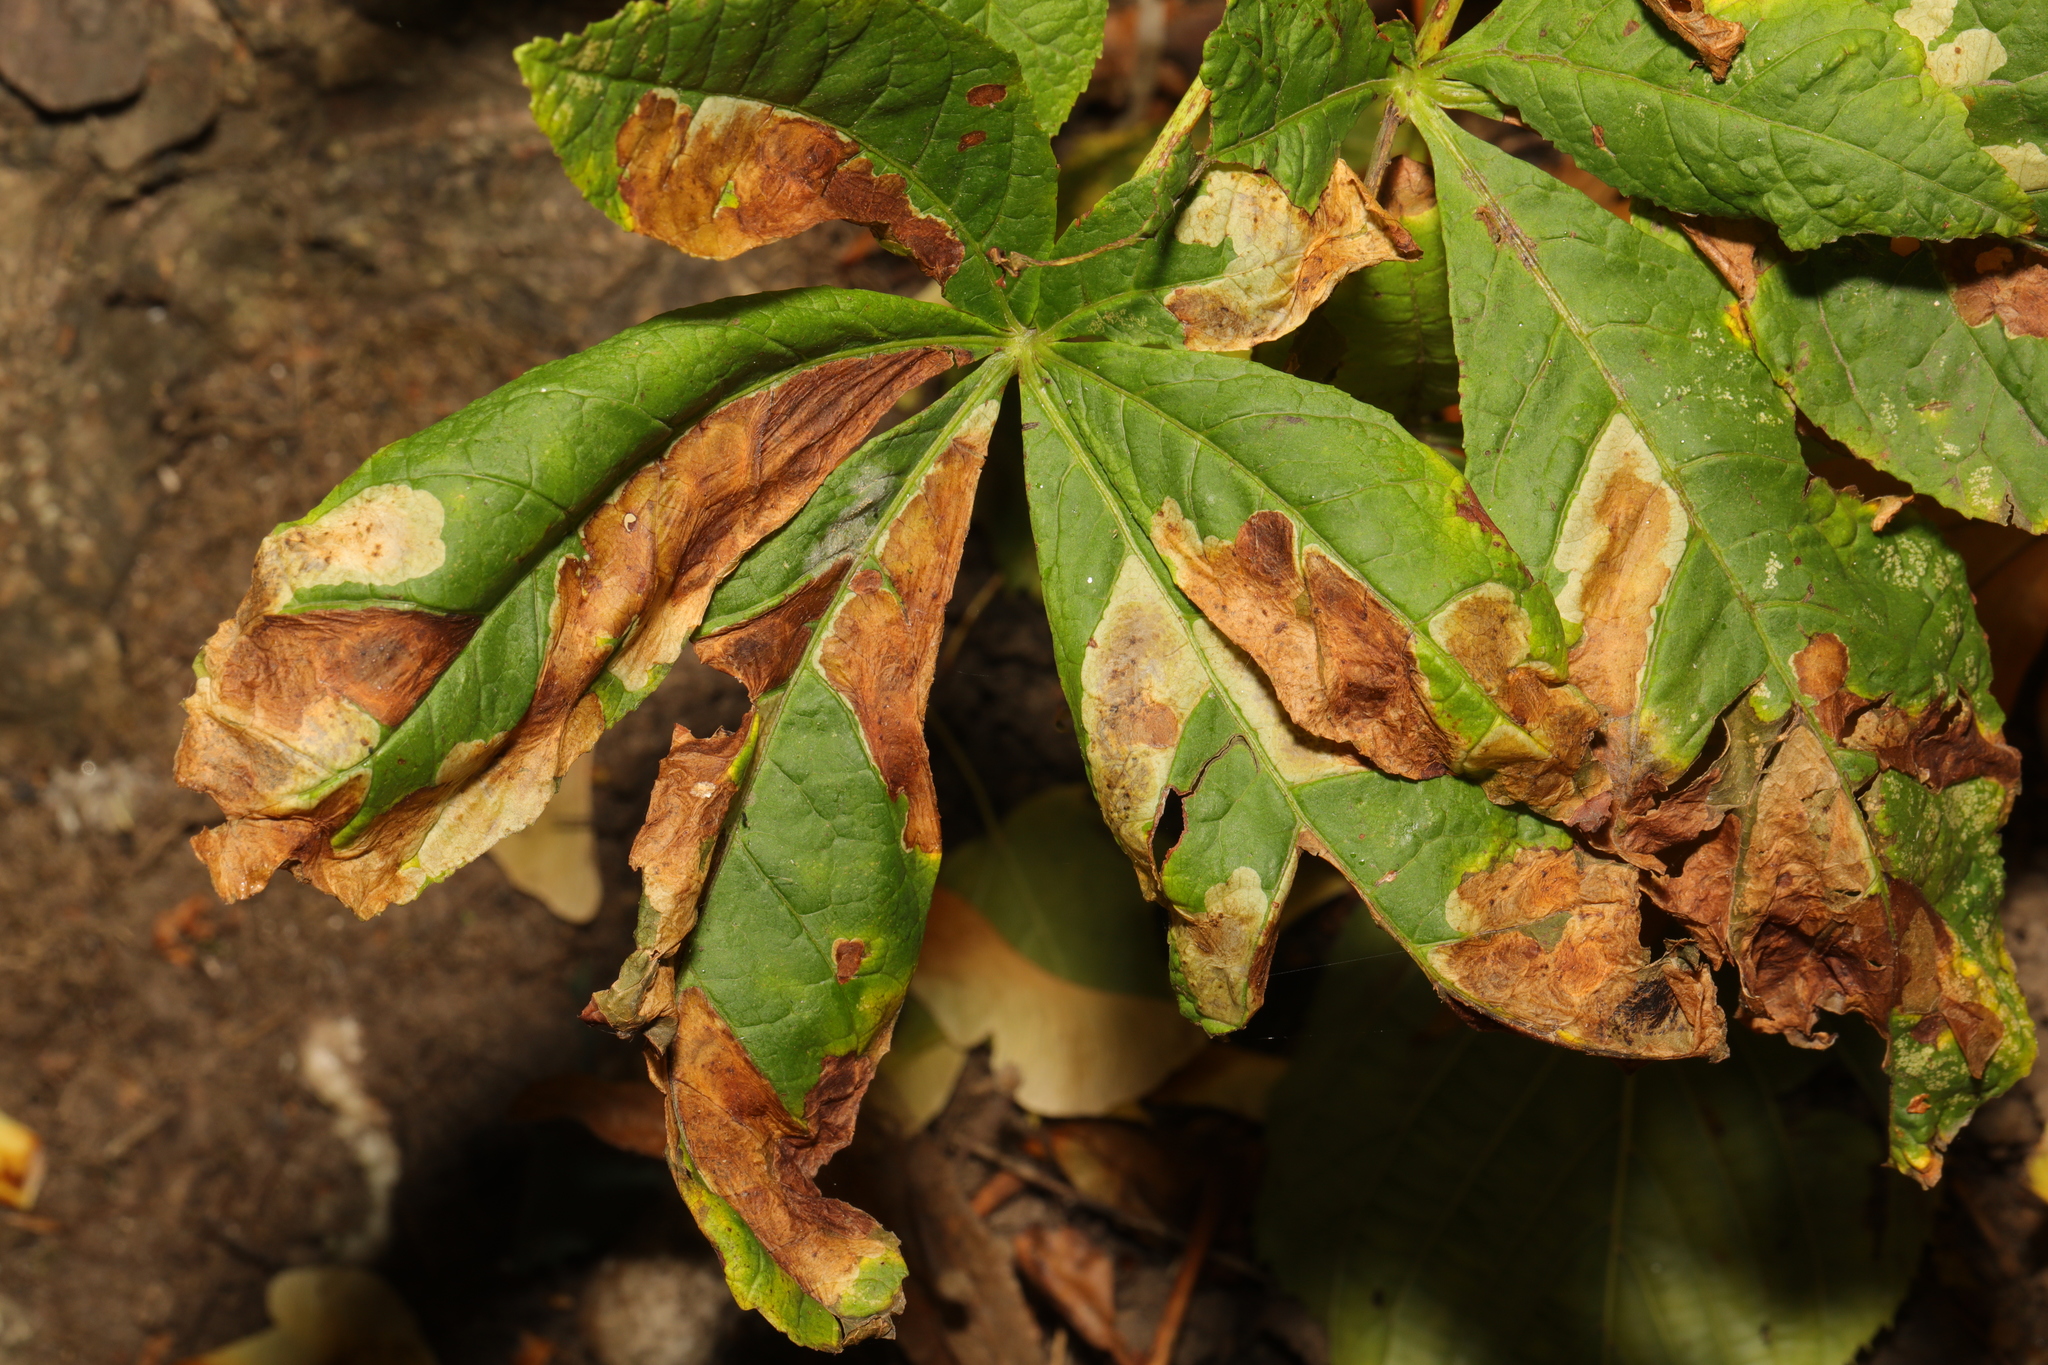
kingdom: Animalia
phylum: Arthropoda
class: Insecta
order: Lepidoptera
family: Gracillariidae
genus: Cameraria
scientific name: Cameraria ohridella
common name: Horse-chestnut leaf-miner
